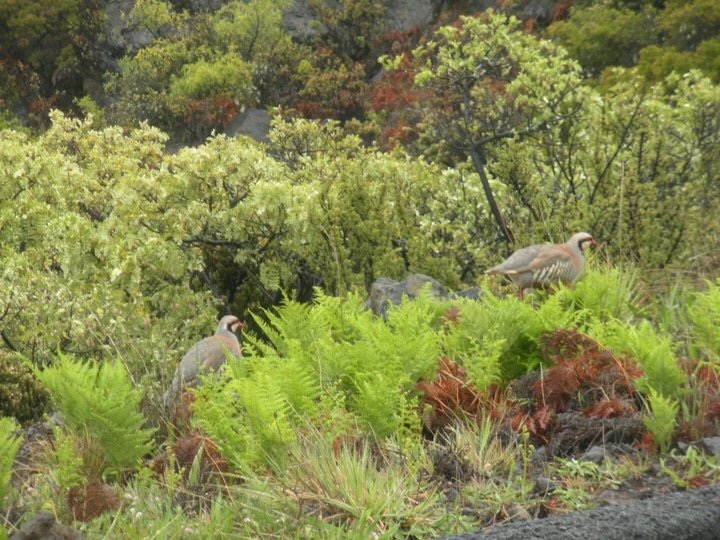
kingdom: Animalia
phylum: Chordata
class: Aves
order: Galliformes
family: Phasianidae
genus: Alectoris
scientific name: Alectoris chukar
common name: Chukar
